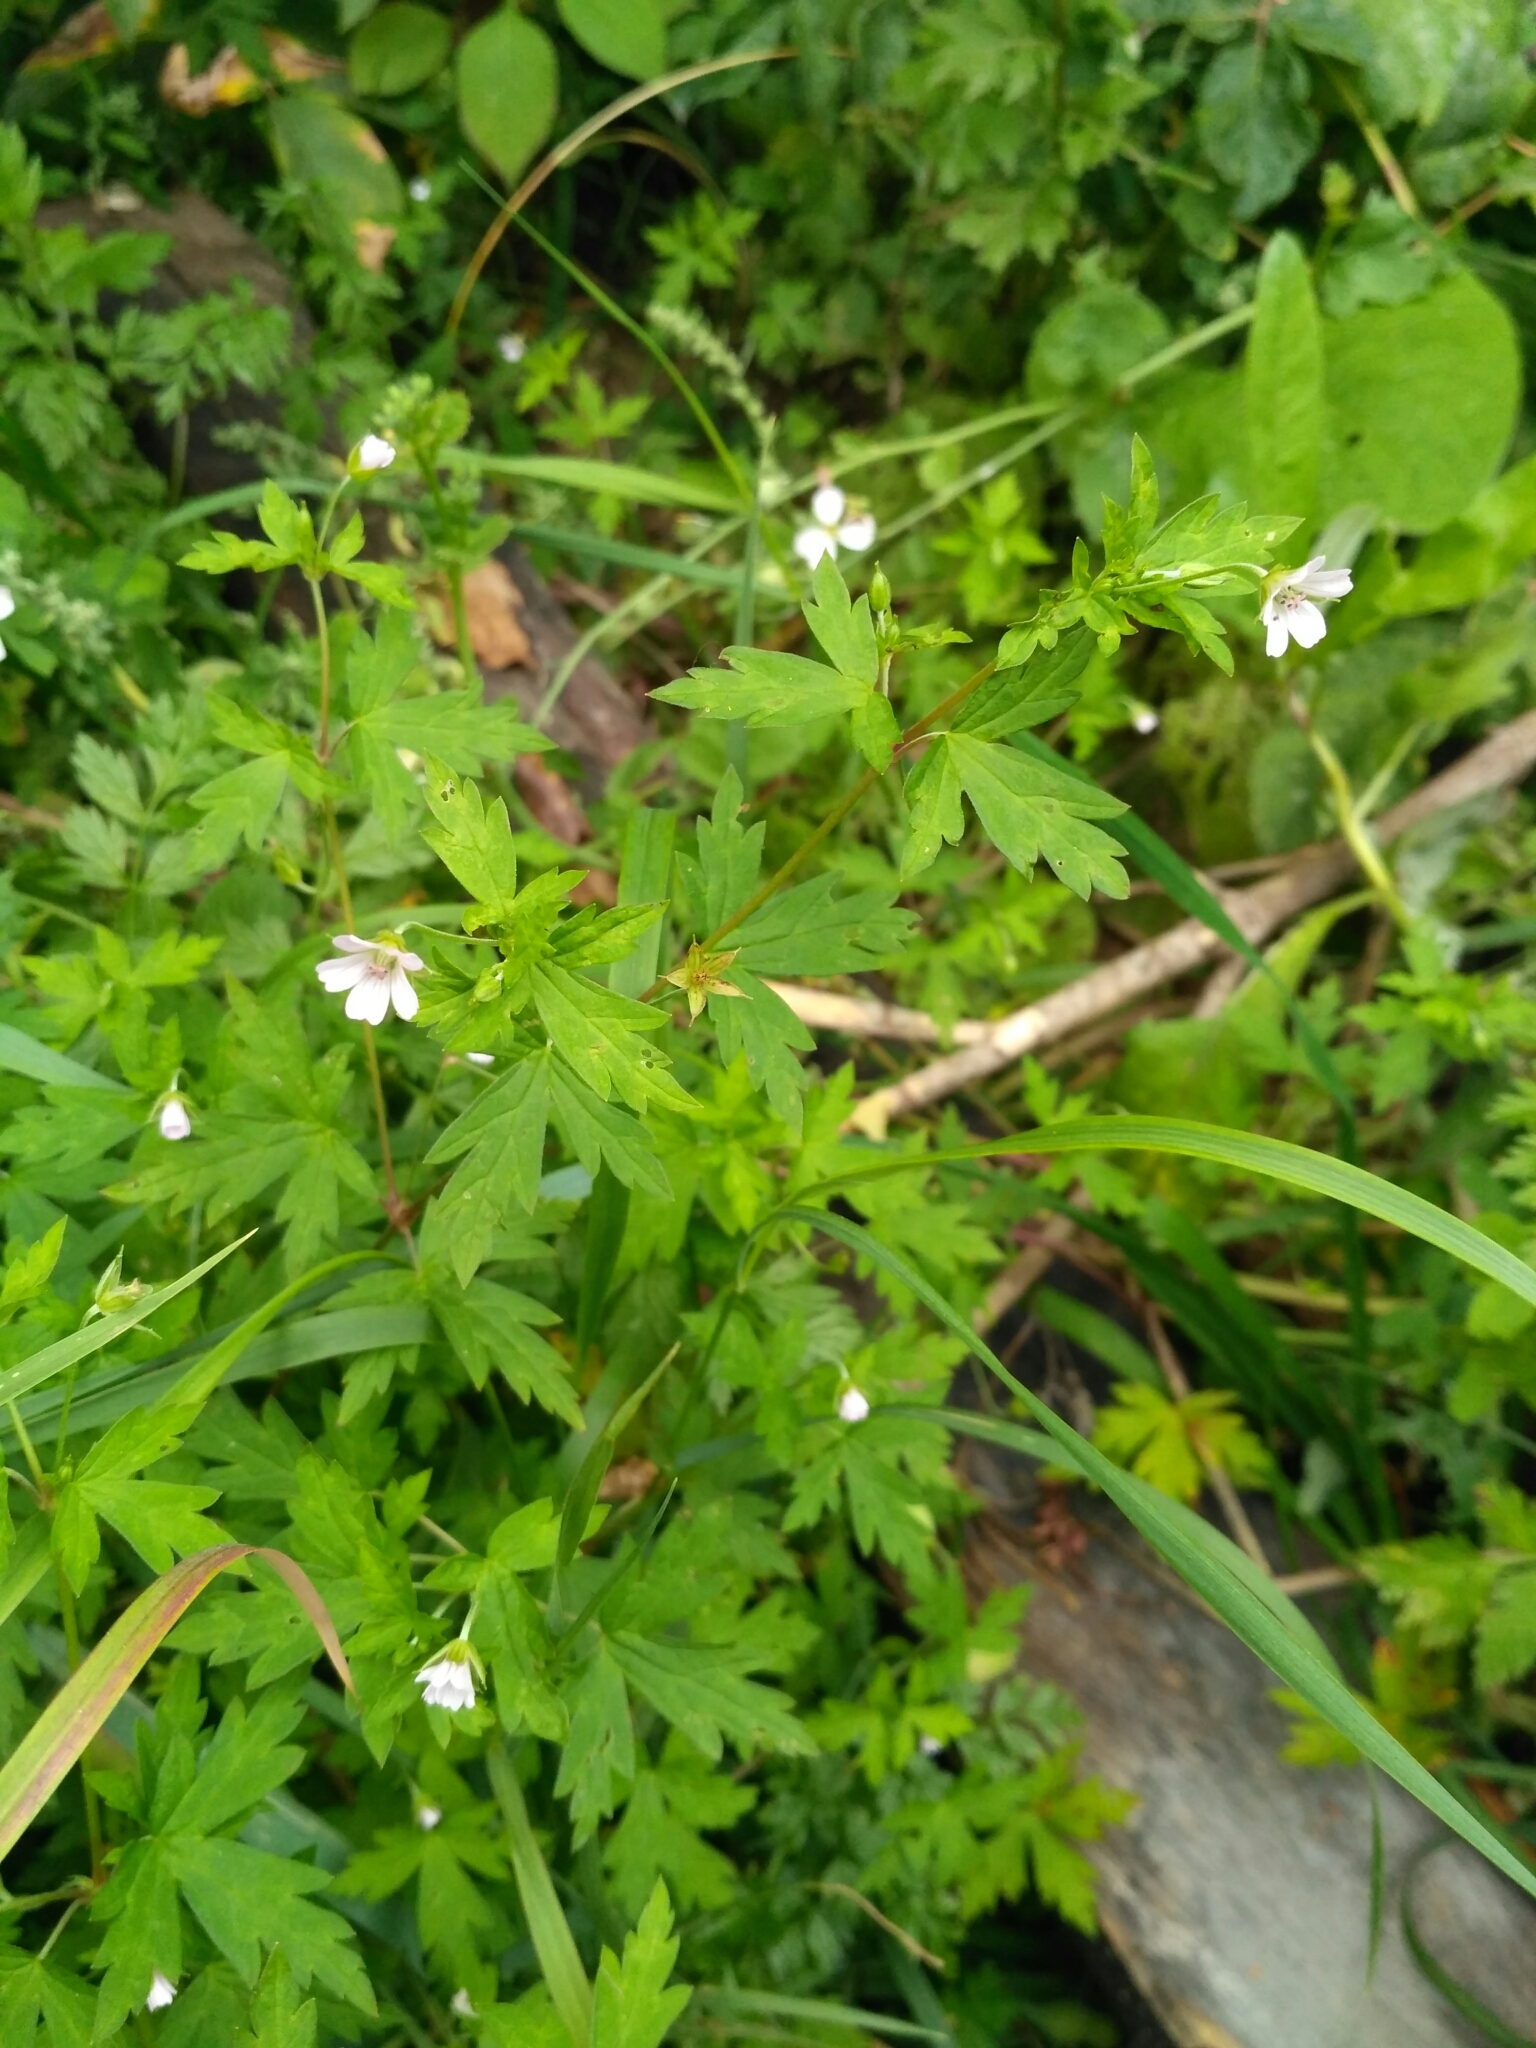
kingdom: Plantae
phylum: Tracheophyta
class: Magnoliopsida
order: Geraniales
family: Geraniaceae
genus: Geranium
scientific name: Geranium sibiricum
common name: Siberian crane's-bill
